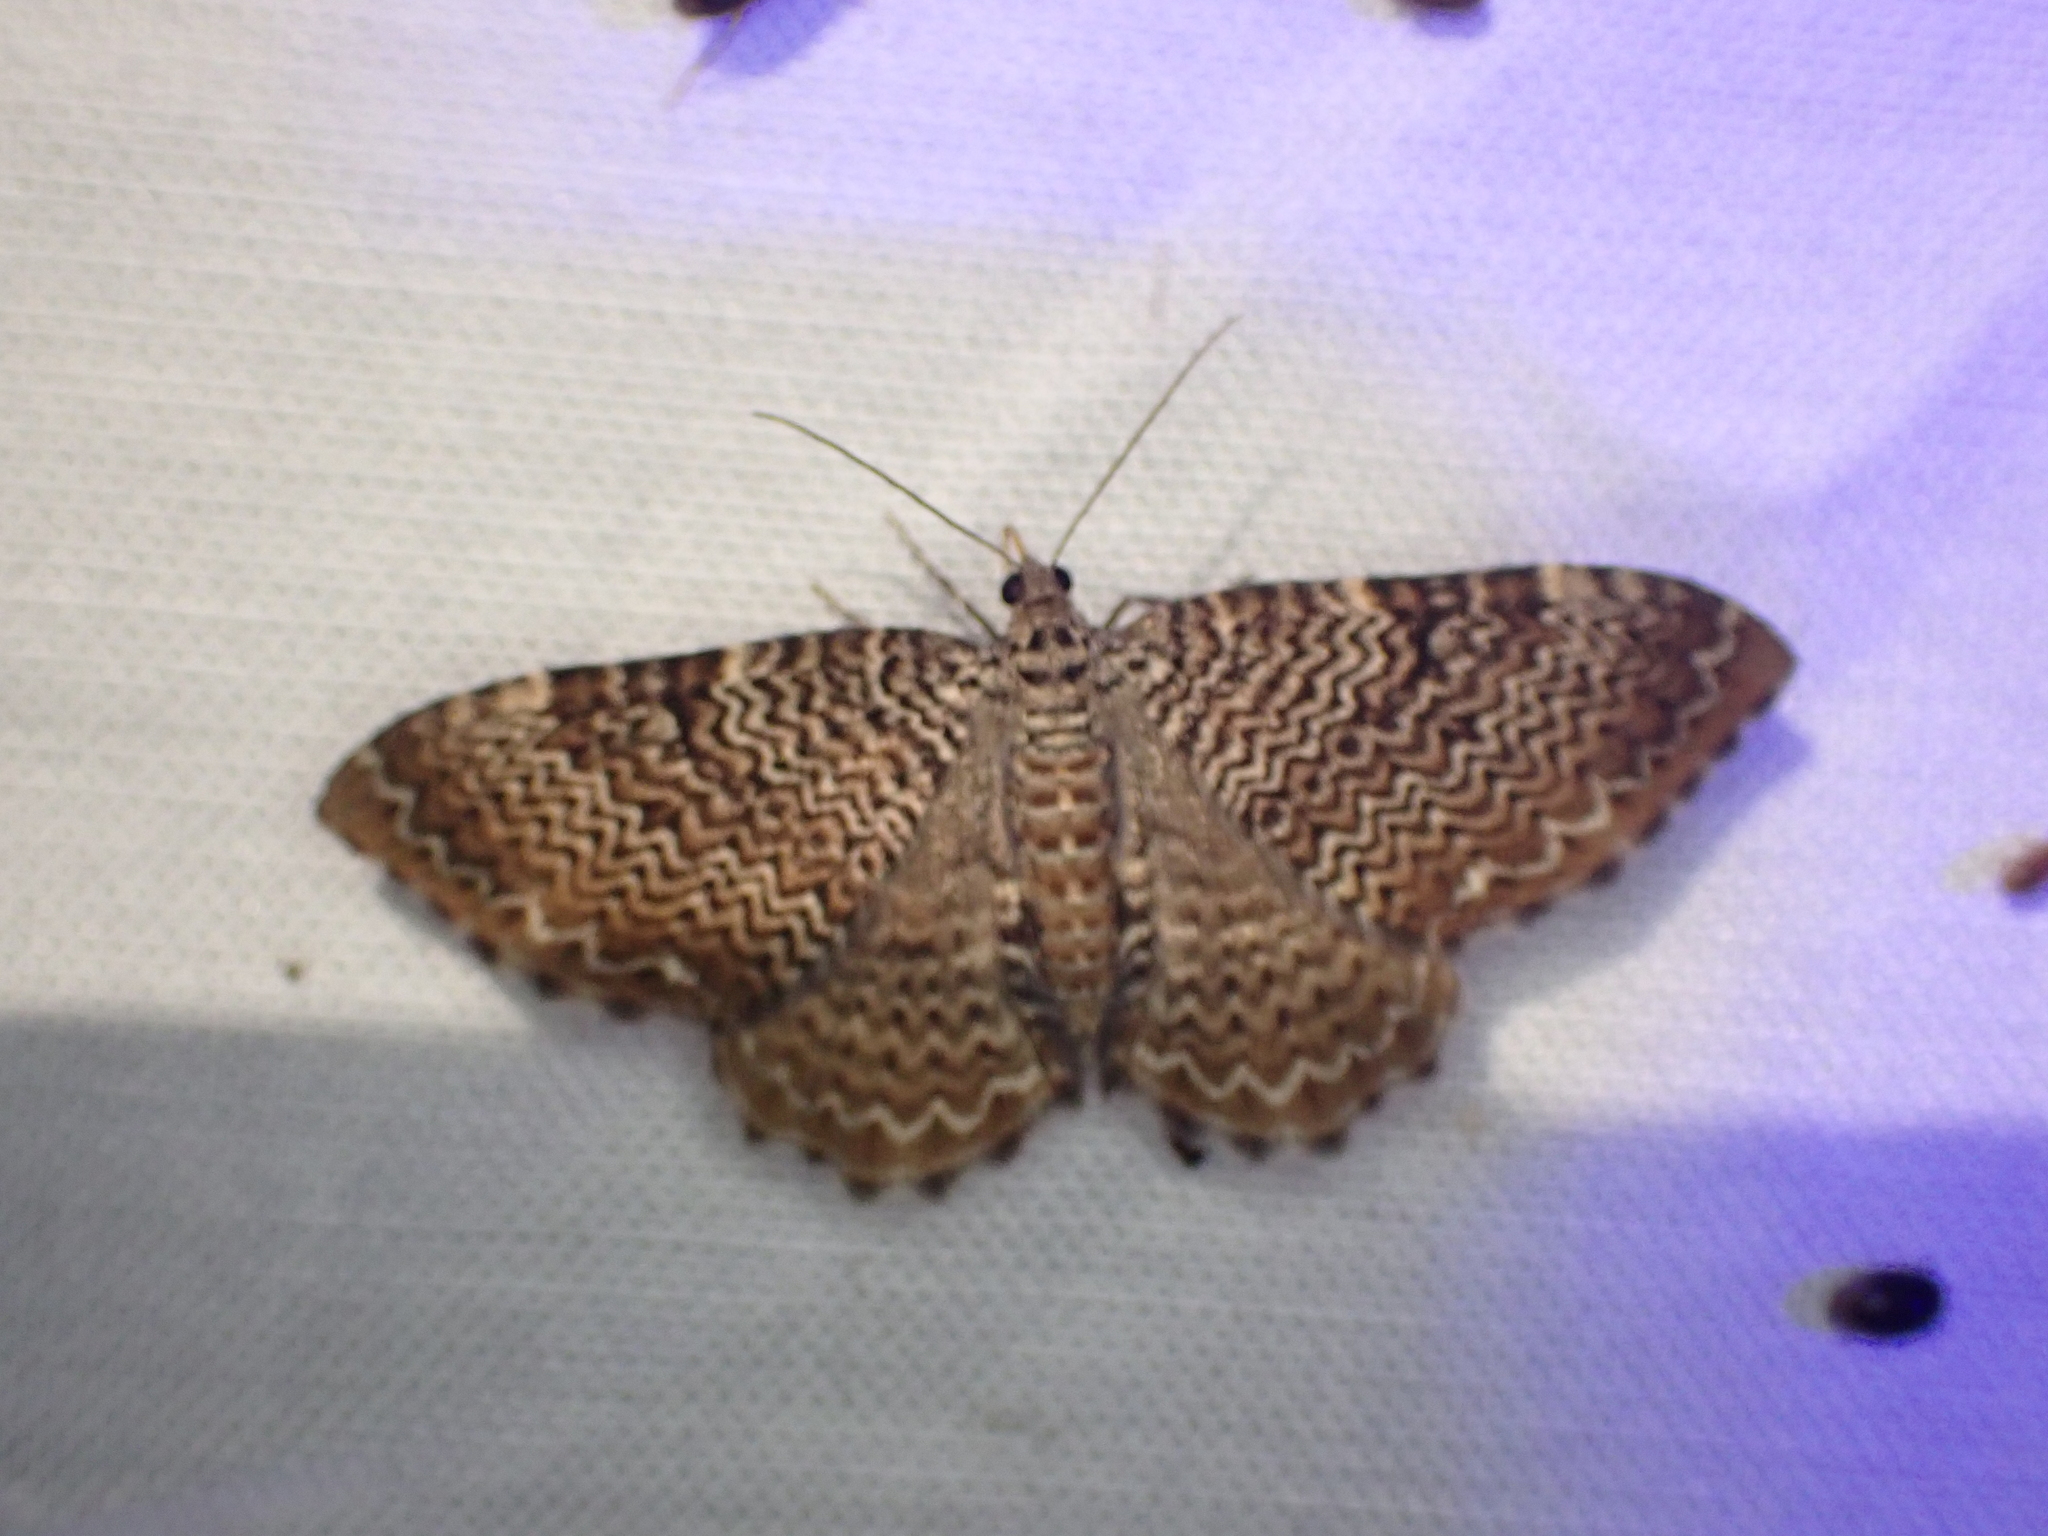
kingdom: Animalia
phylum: Arthropoda
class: Insecta
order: Lepidoptera
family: Geometridae
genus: Rheumaptera
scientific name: Rheumaptera prunivorata
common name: Cherry scallop shell moth
